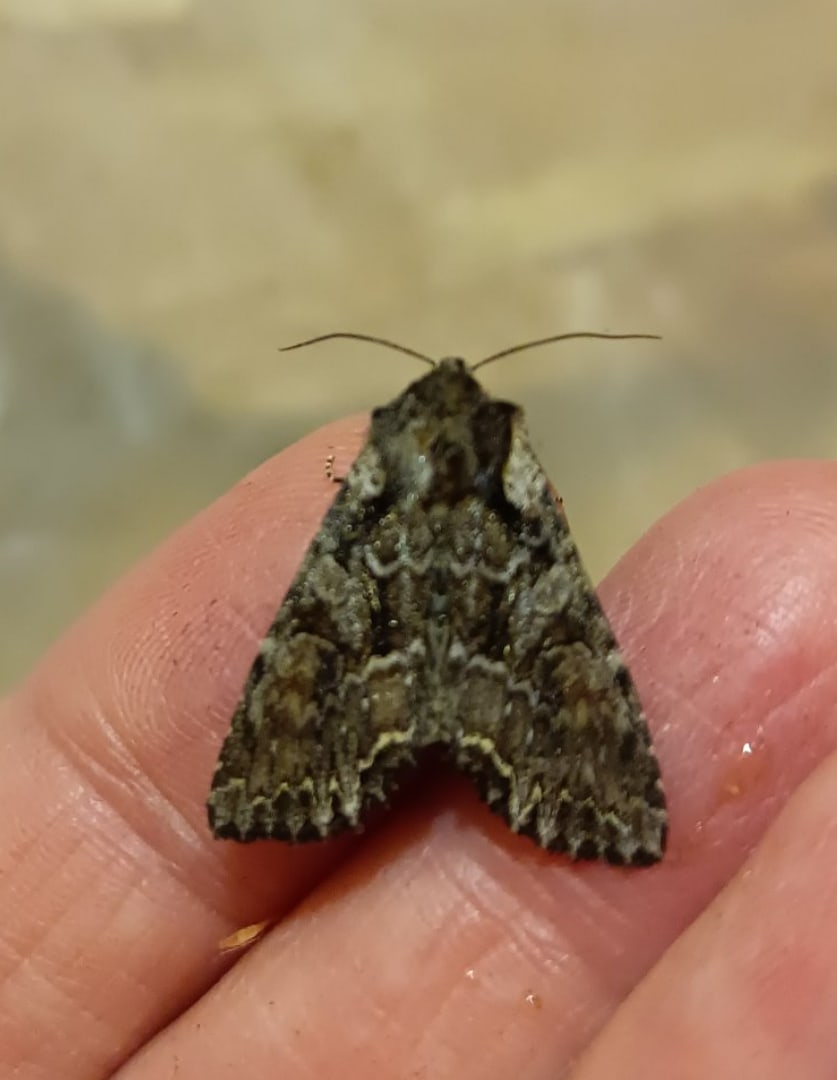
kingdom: Animalia
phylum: Arthropoda
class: Insecta
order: Lepidoptera
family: Noctuidae
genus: Lacanobia
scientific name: Lacanobia thalassina
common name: Pale-shouldered brocade
